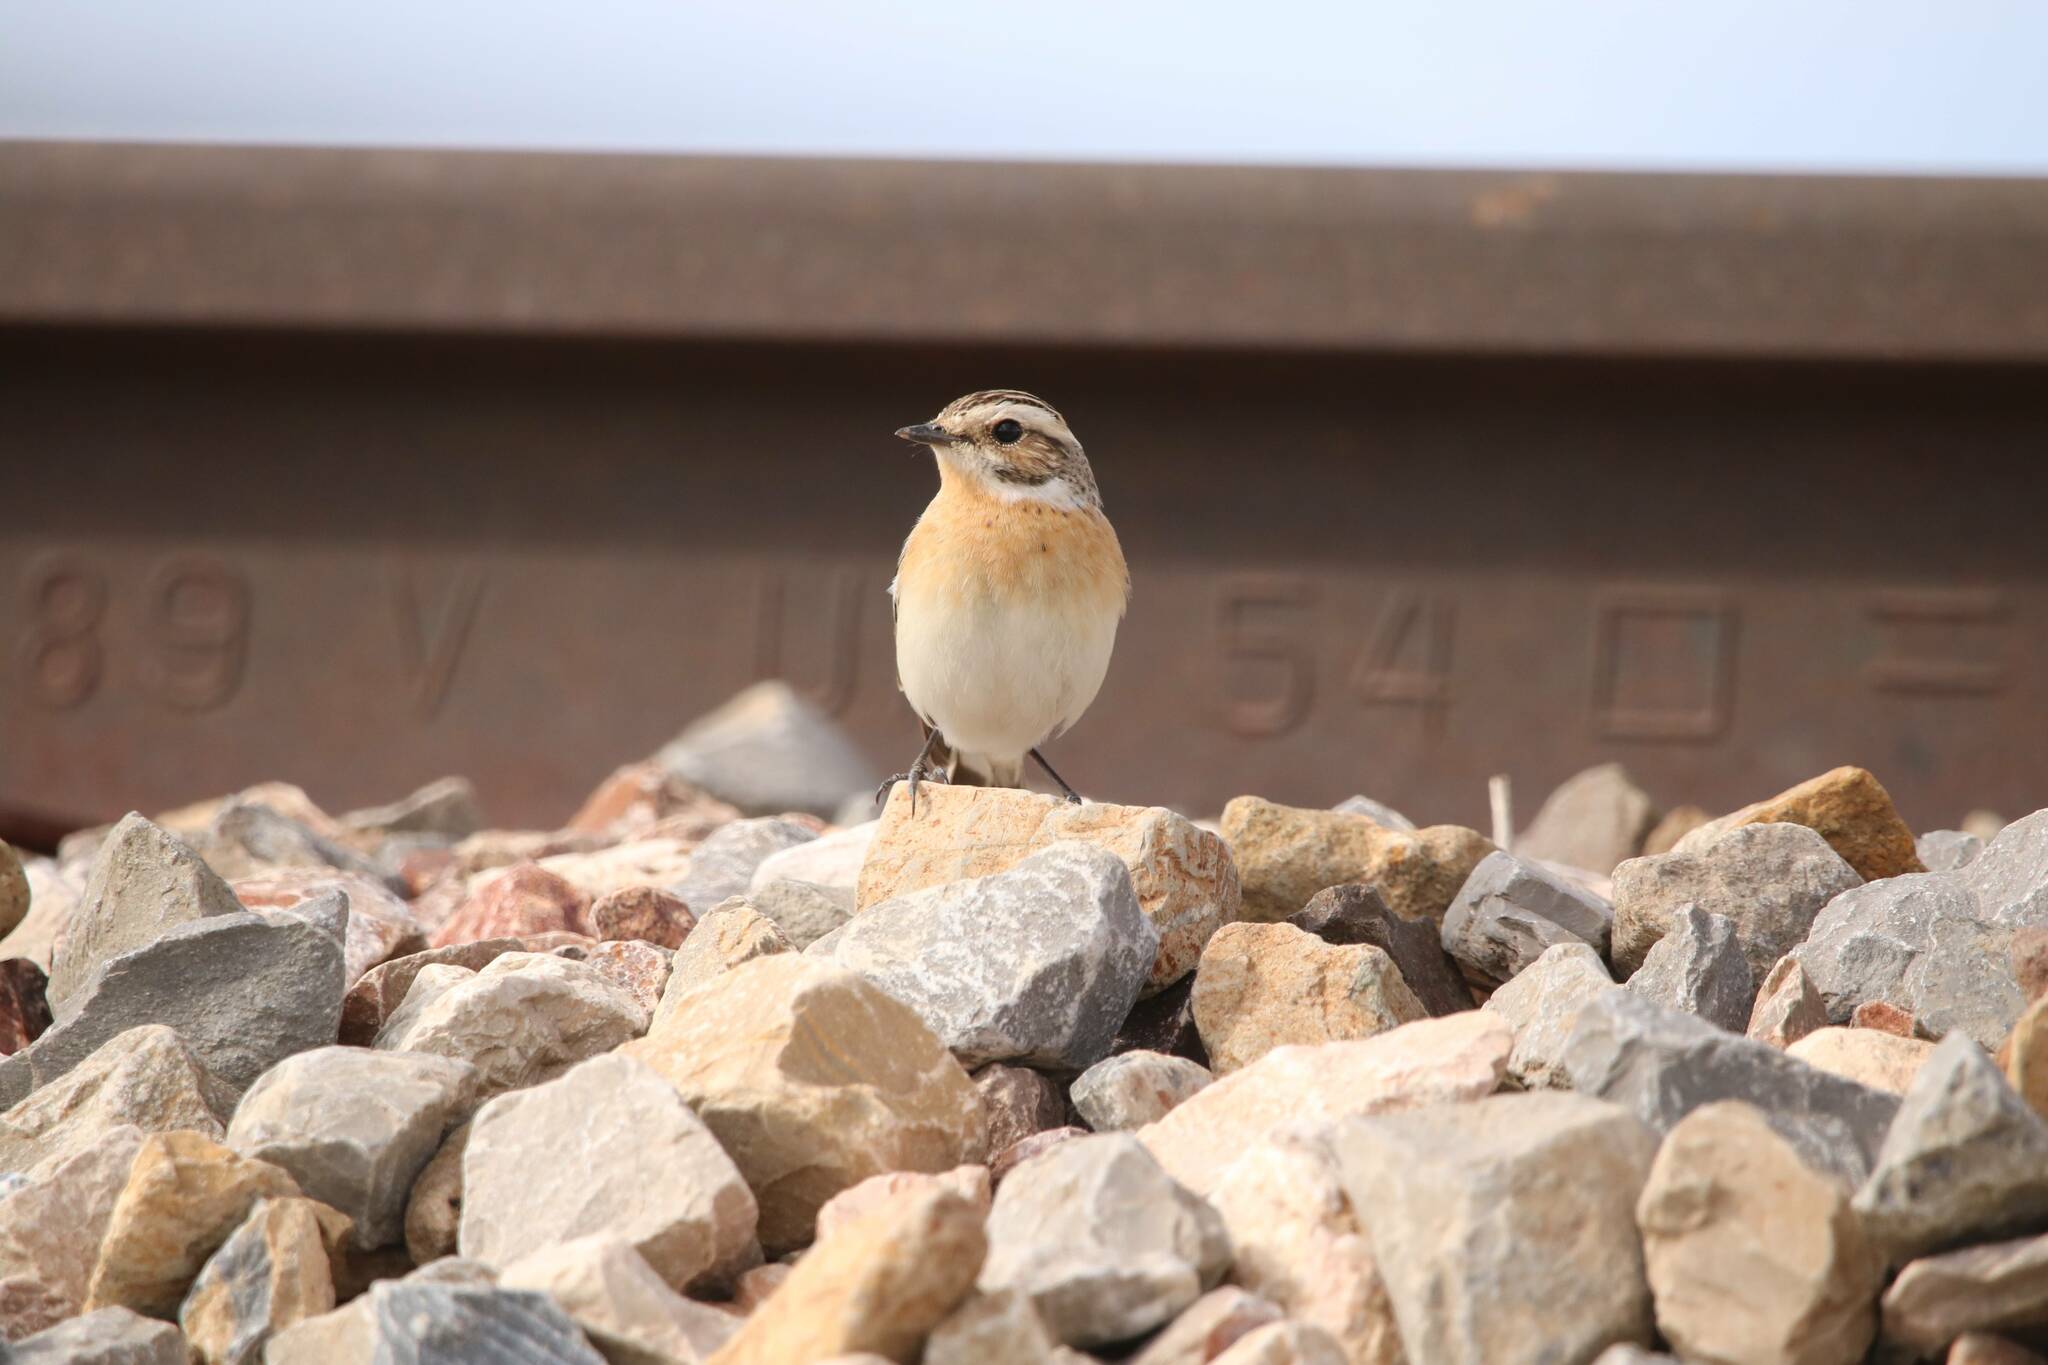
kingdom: Animalia
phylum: Chordata
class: Aves
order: Passeriformes
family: Muscicapidae
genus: Saxicola
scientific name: Saxicola rubetra
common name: Whinchat
